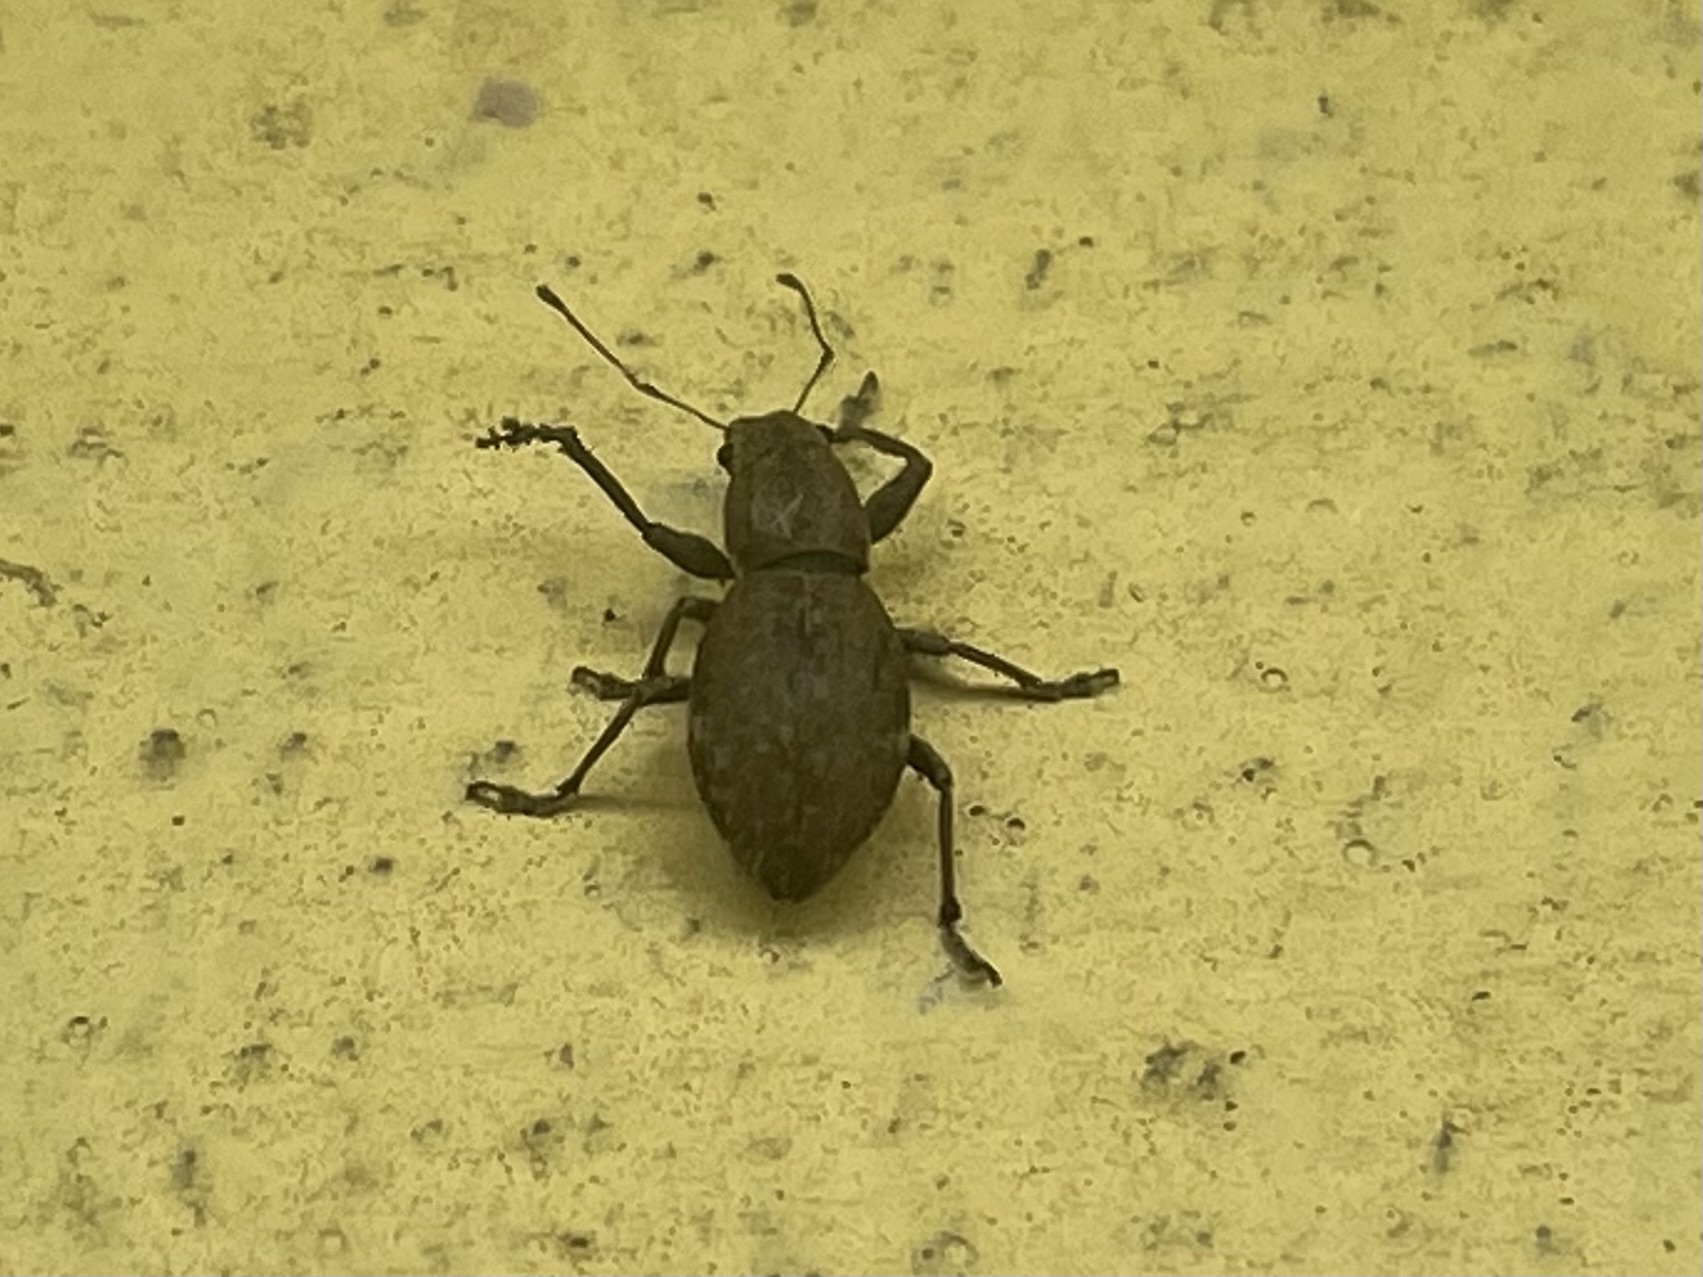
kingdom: Animalia
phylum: Arthropoda
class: Insecta
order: Coleoptera
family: Curculionidae
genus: Naupactus
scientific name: Naupactus cervinus
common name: Fuller rose beetle
